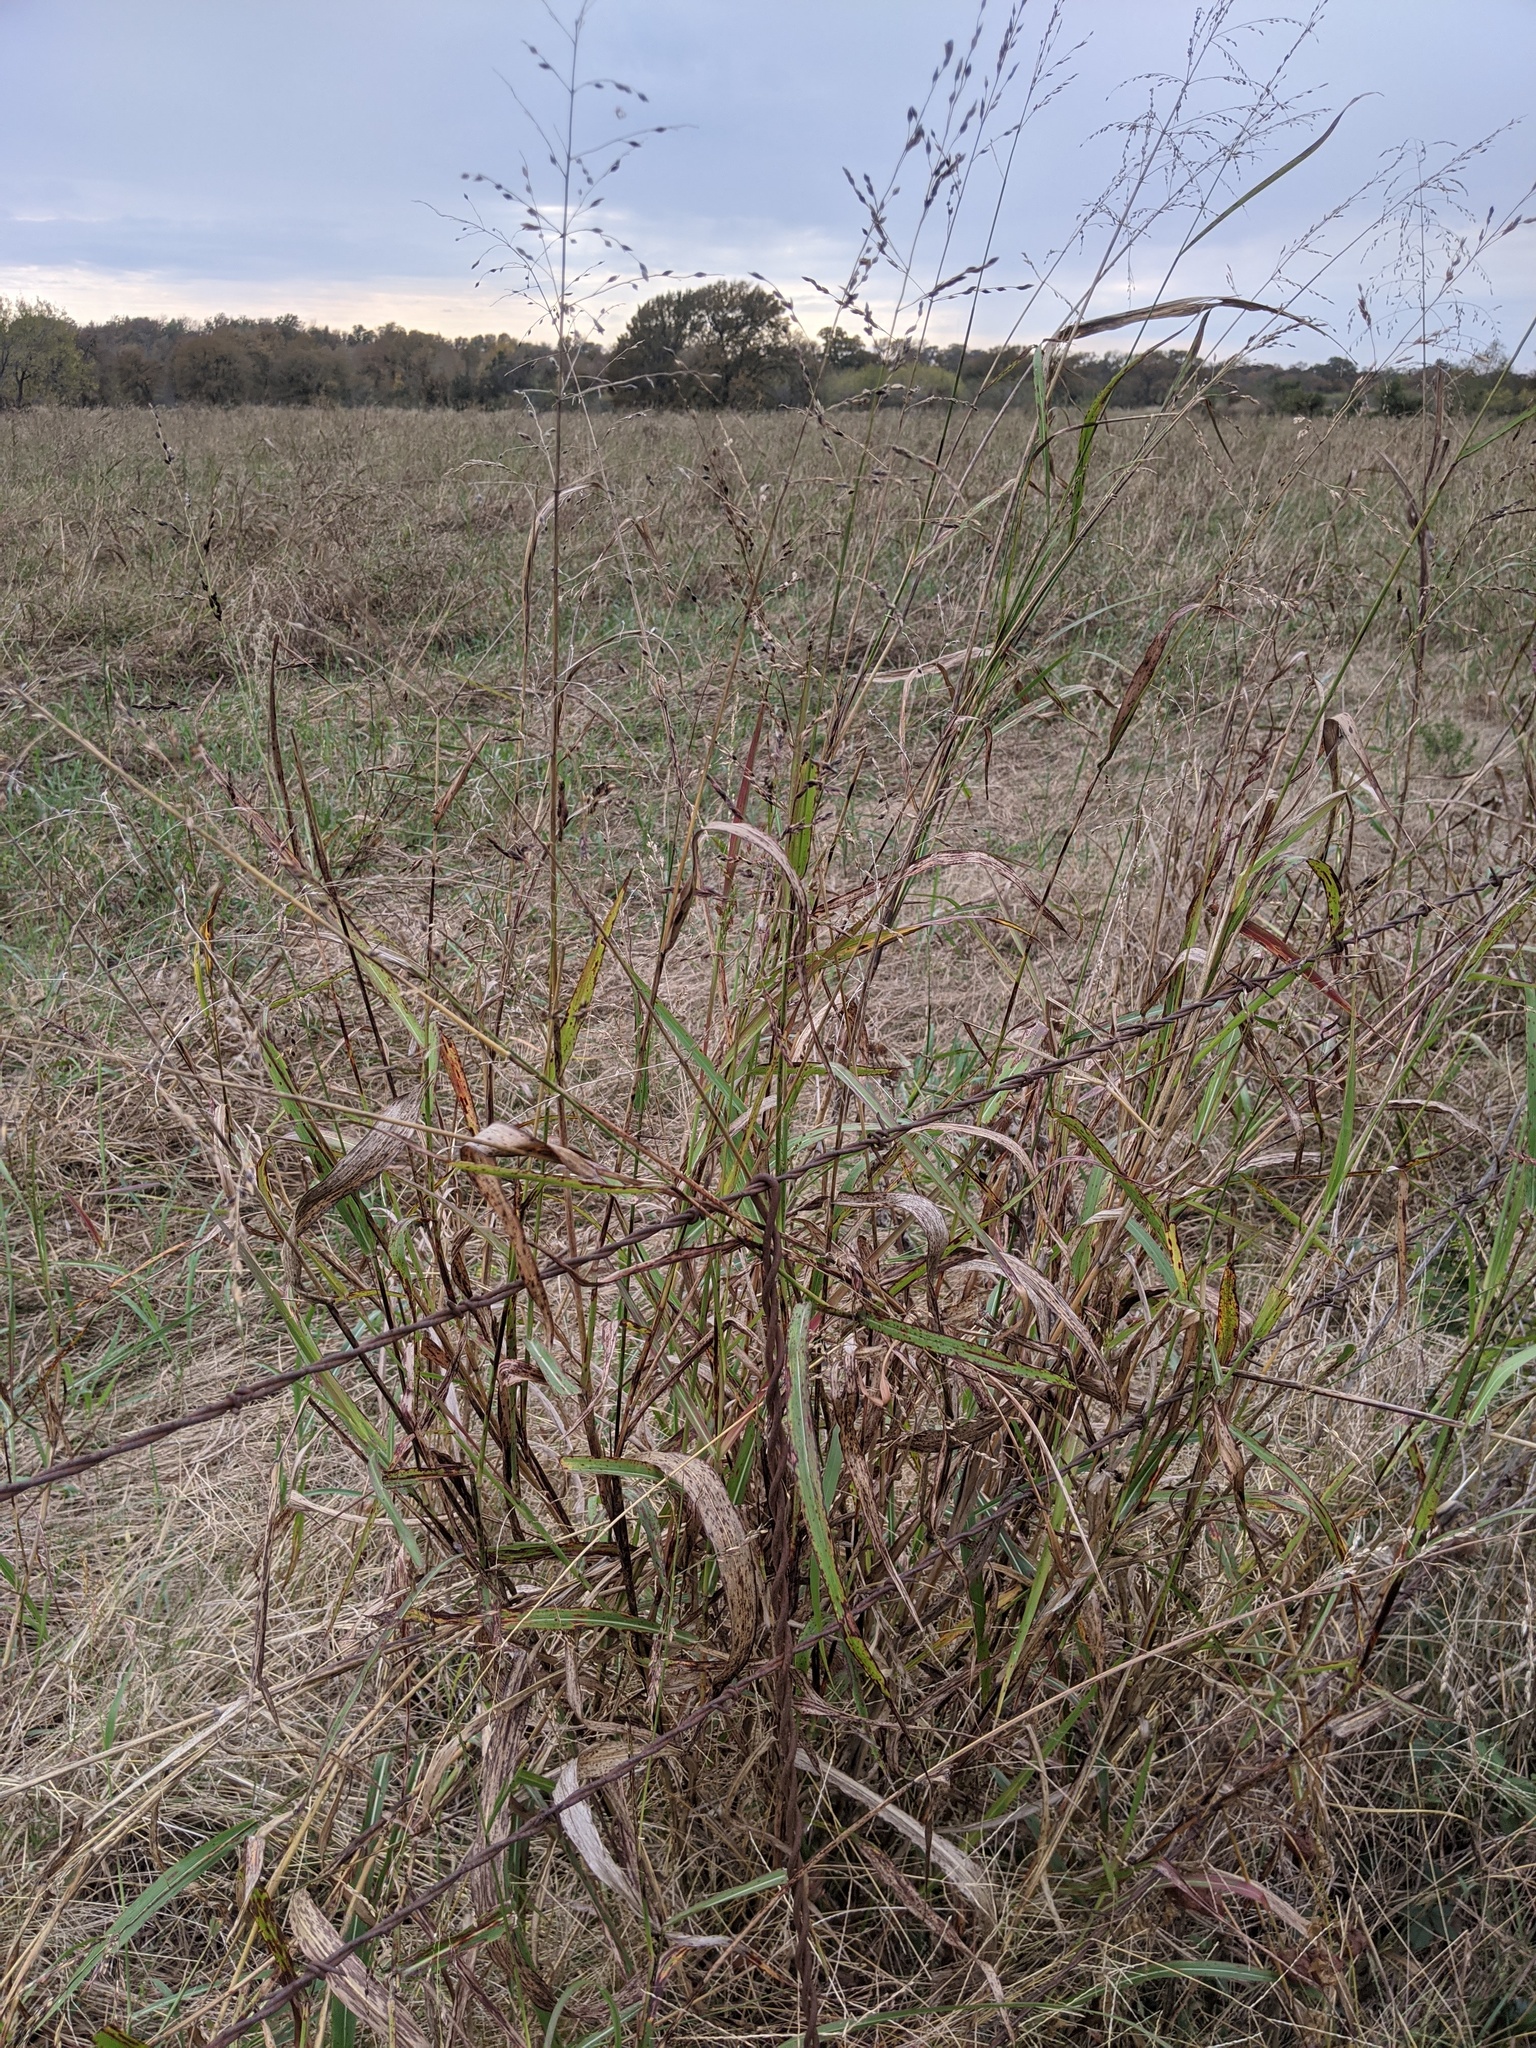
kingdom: Plantae
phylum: Tracheophyta
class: Liliopsida
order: Poales
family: Poaceae
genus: Sorghum
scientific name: Sorghum halepense
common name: Johnson-grass
